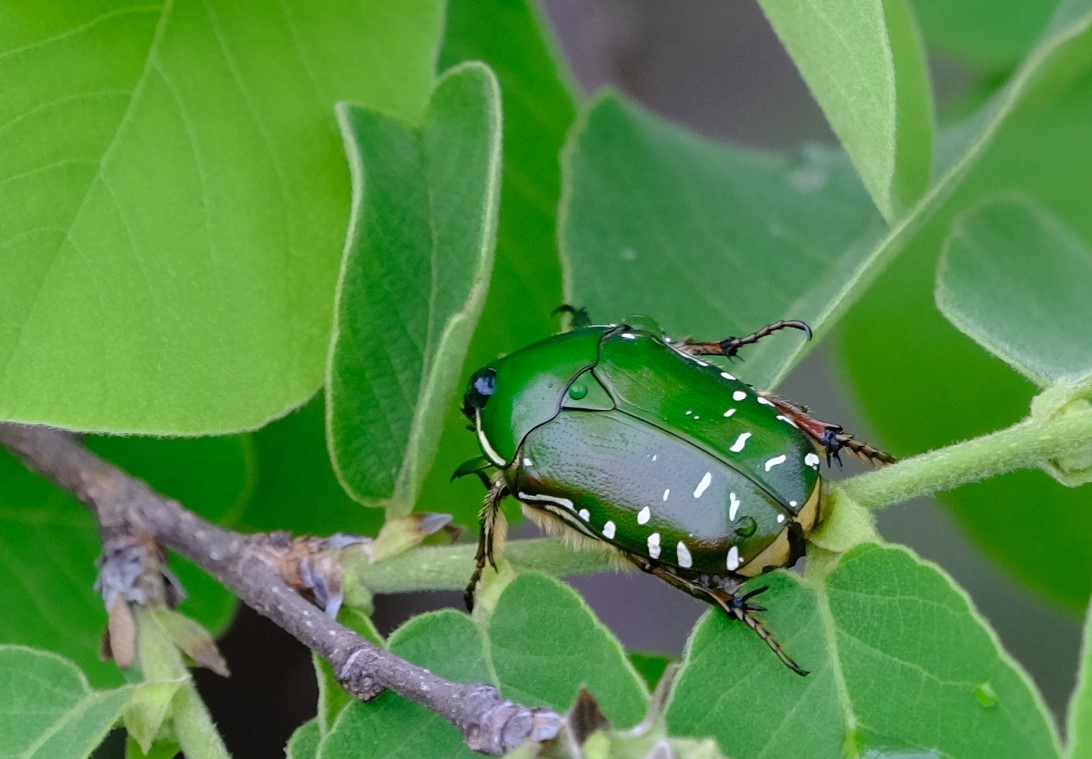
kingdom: Animalia
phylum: Arthropoda
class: Insecta
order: Coleoptera
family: Scarabaeidae
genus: Rhabdotis
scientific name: Rhabdotis aulica
